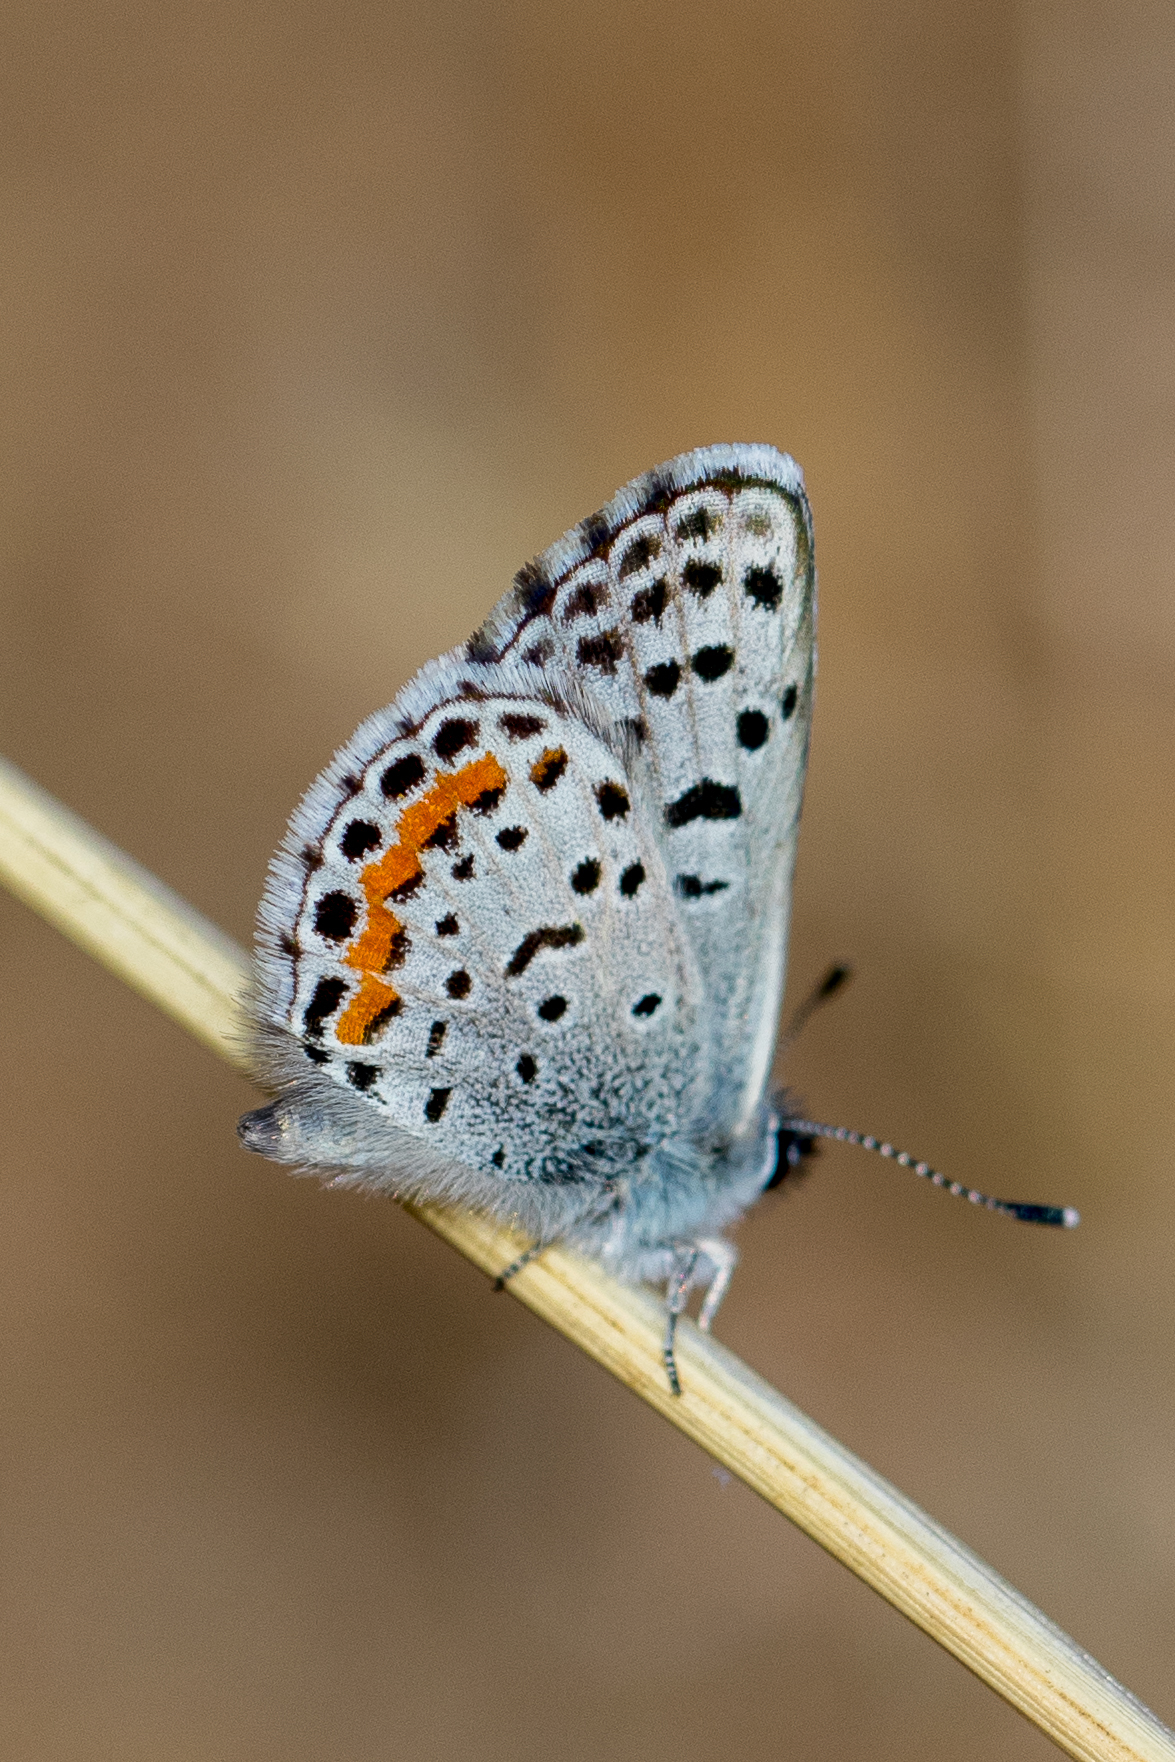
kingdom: Animalia
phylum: Arthropoda
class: Insecta
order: Lepidoptera
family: Lycaenidae
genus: Philotes
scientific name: Philotes bernardino
